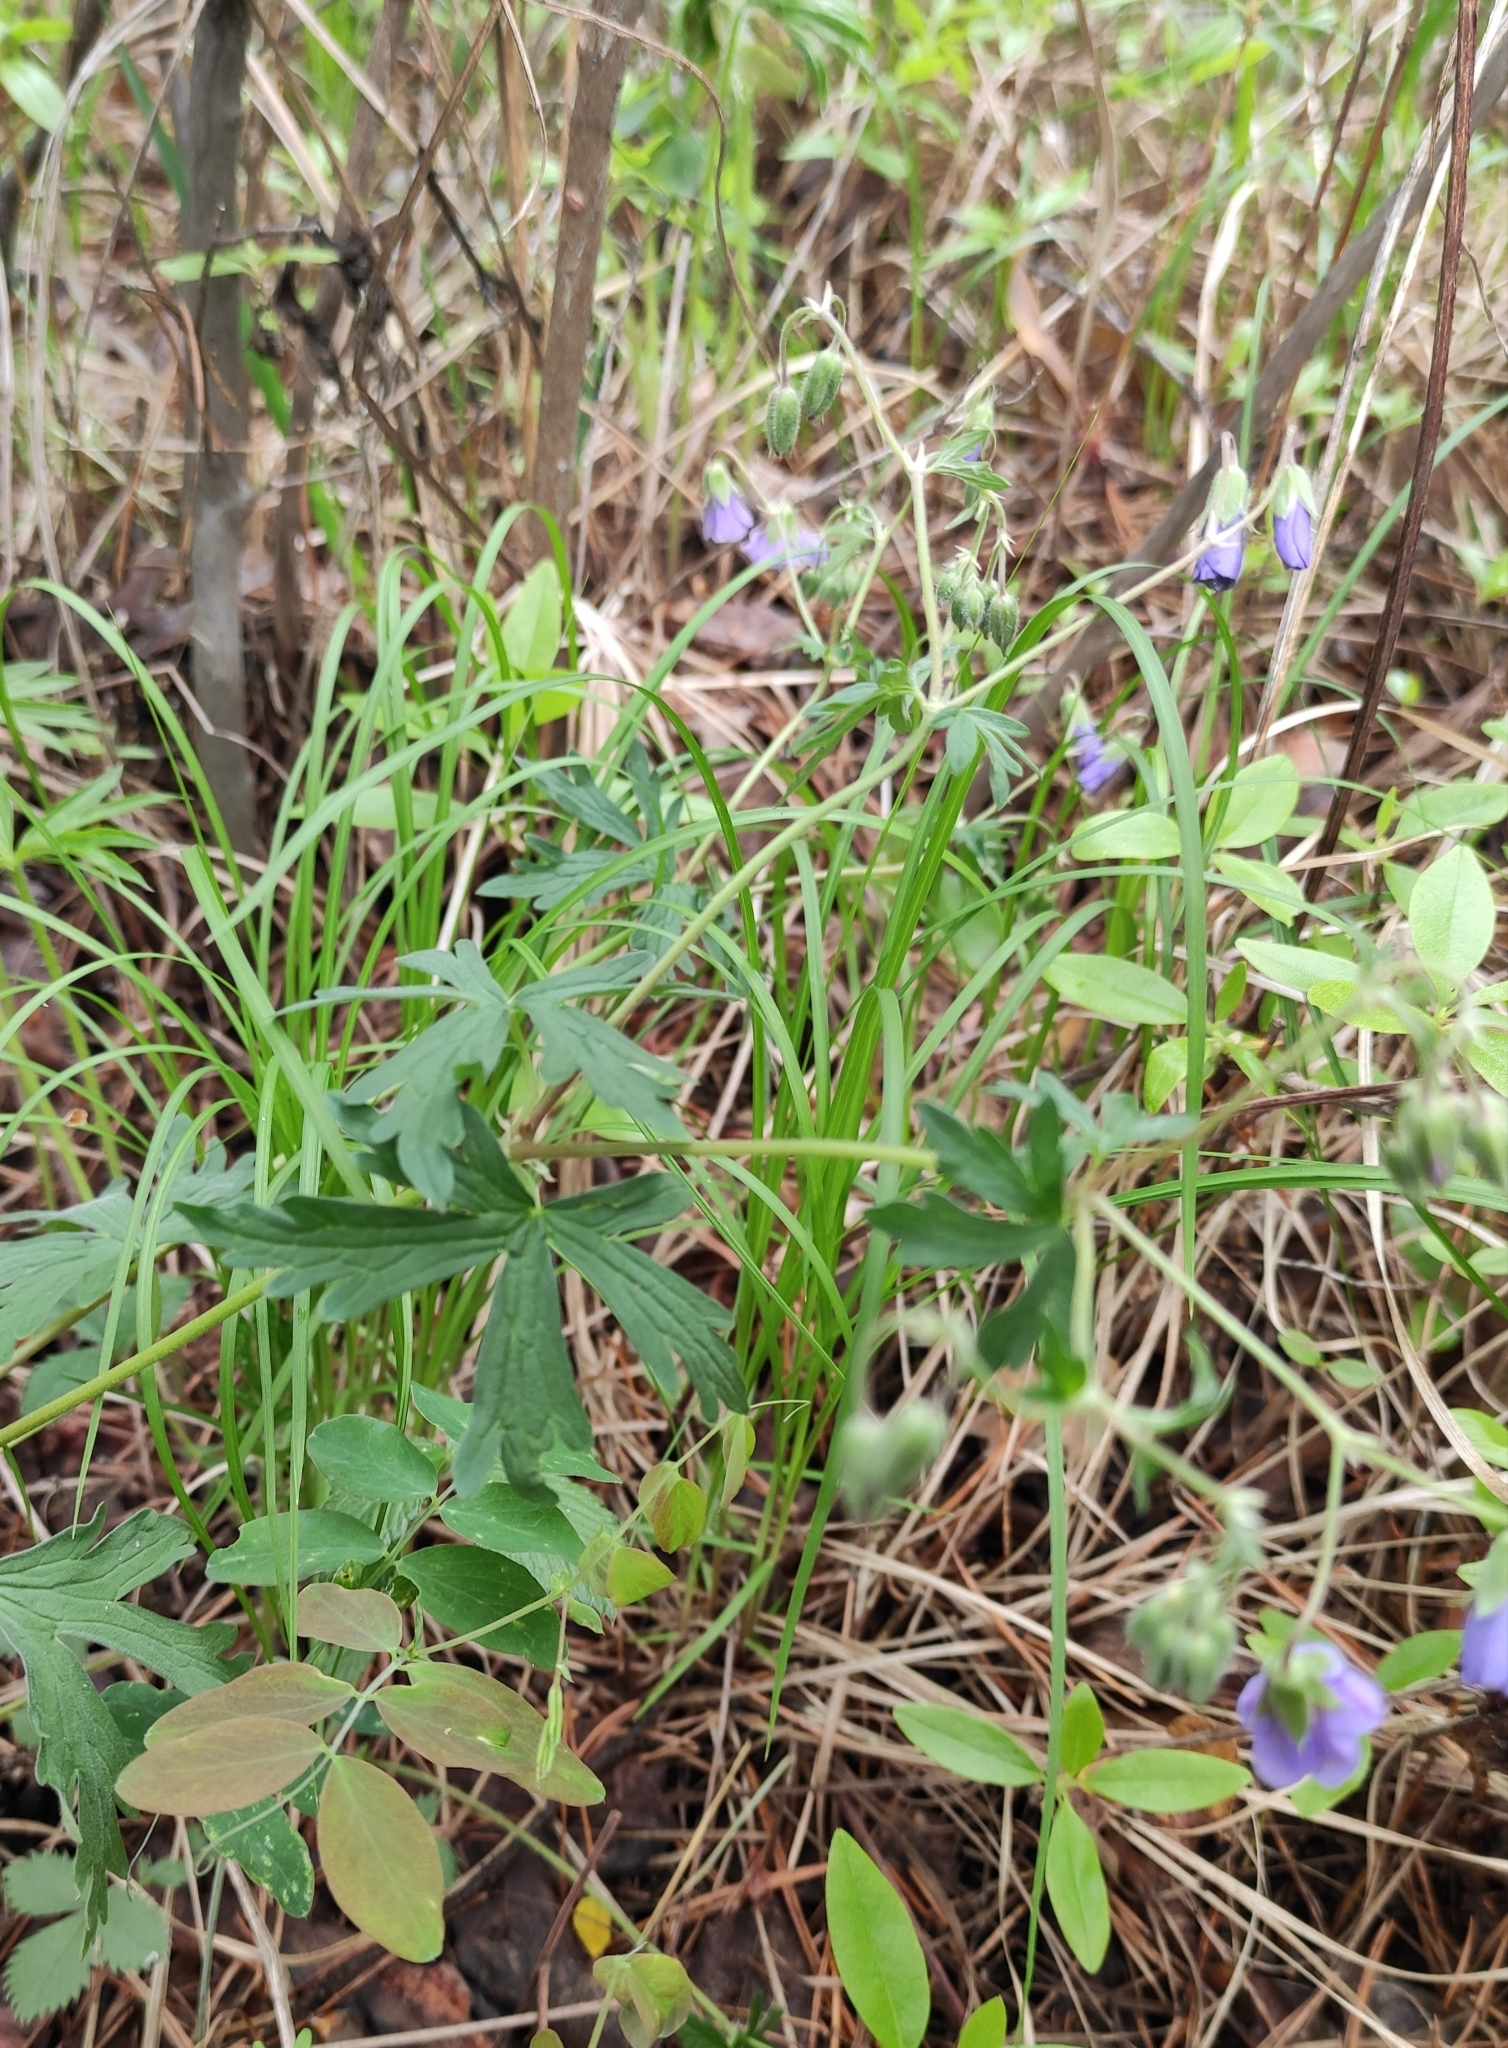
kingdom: Plantae
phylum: Tracheophyta
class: Magnoliopsida
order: Geraniales
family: Geraniaceae
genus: Geranium
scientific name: Geranium pseudosibiricum
